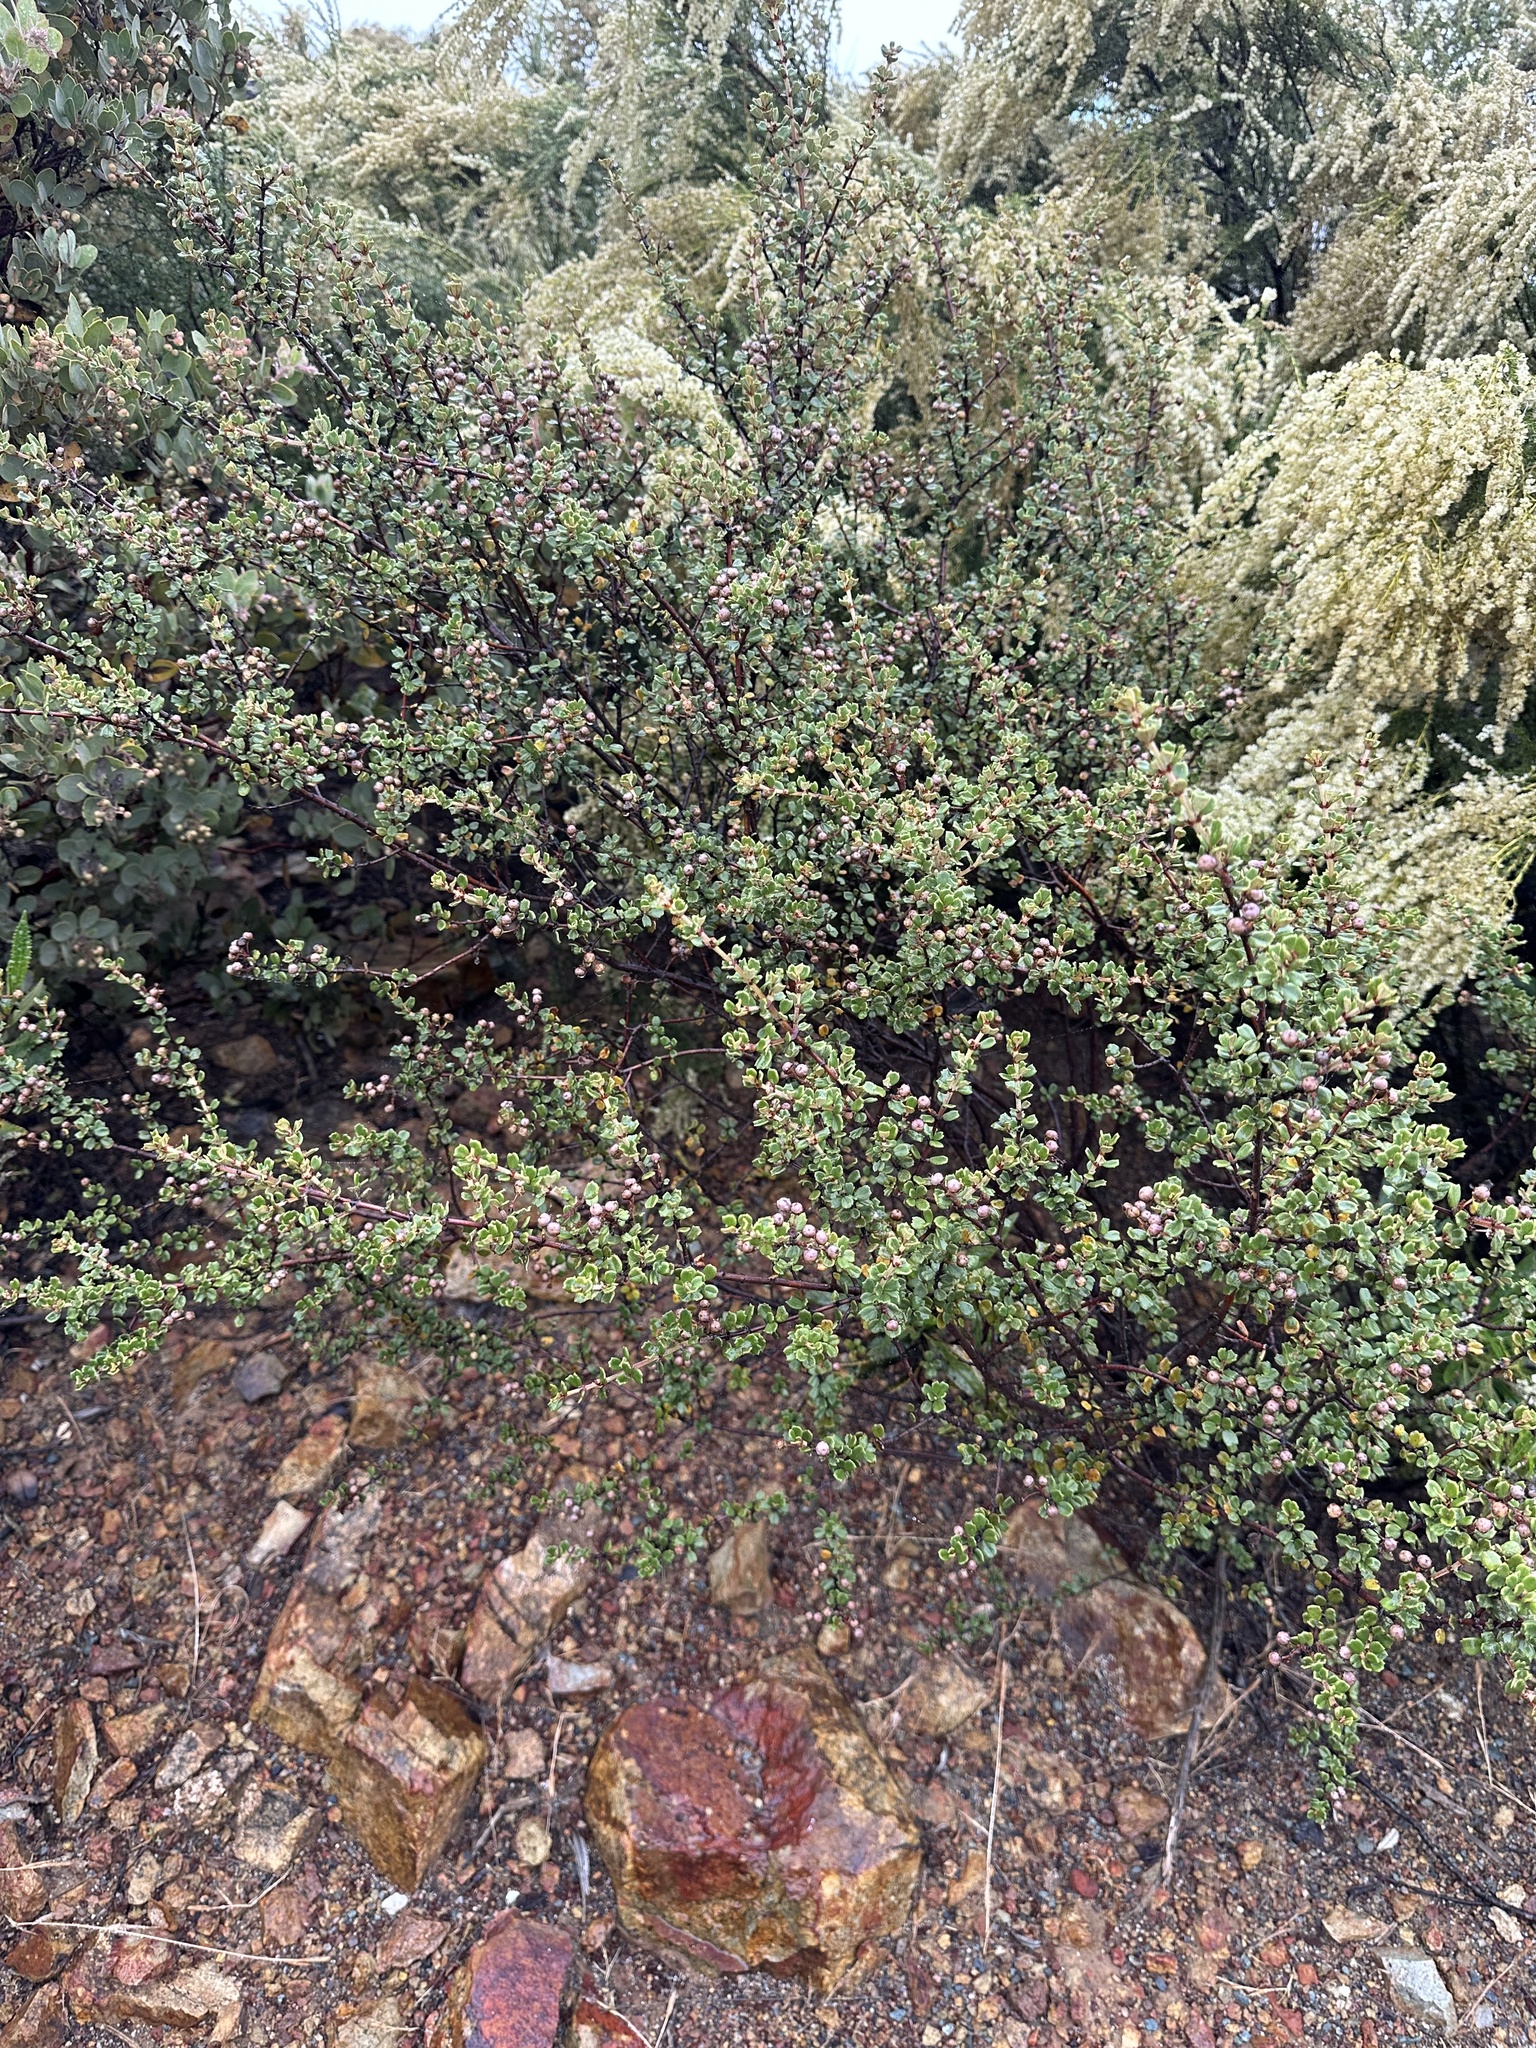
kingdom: Plantae
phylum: Tracheophyta
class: Magnoliopsida
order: Rosales
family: Rhamnaceae
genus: Ceanothus
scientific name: Ceanothus otayensis
